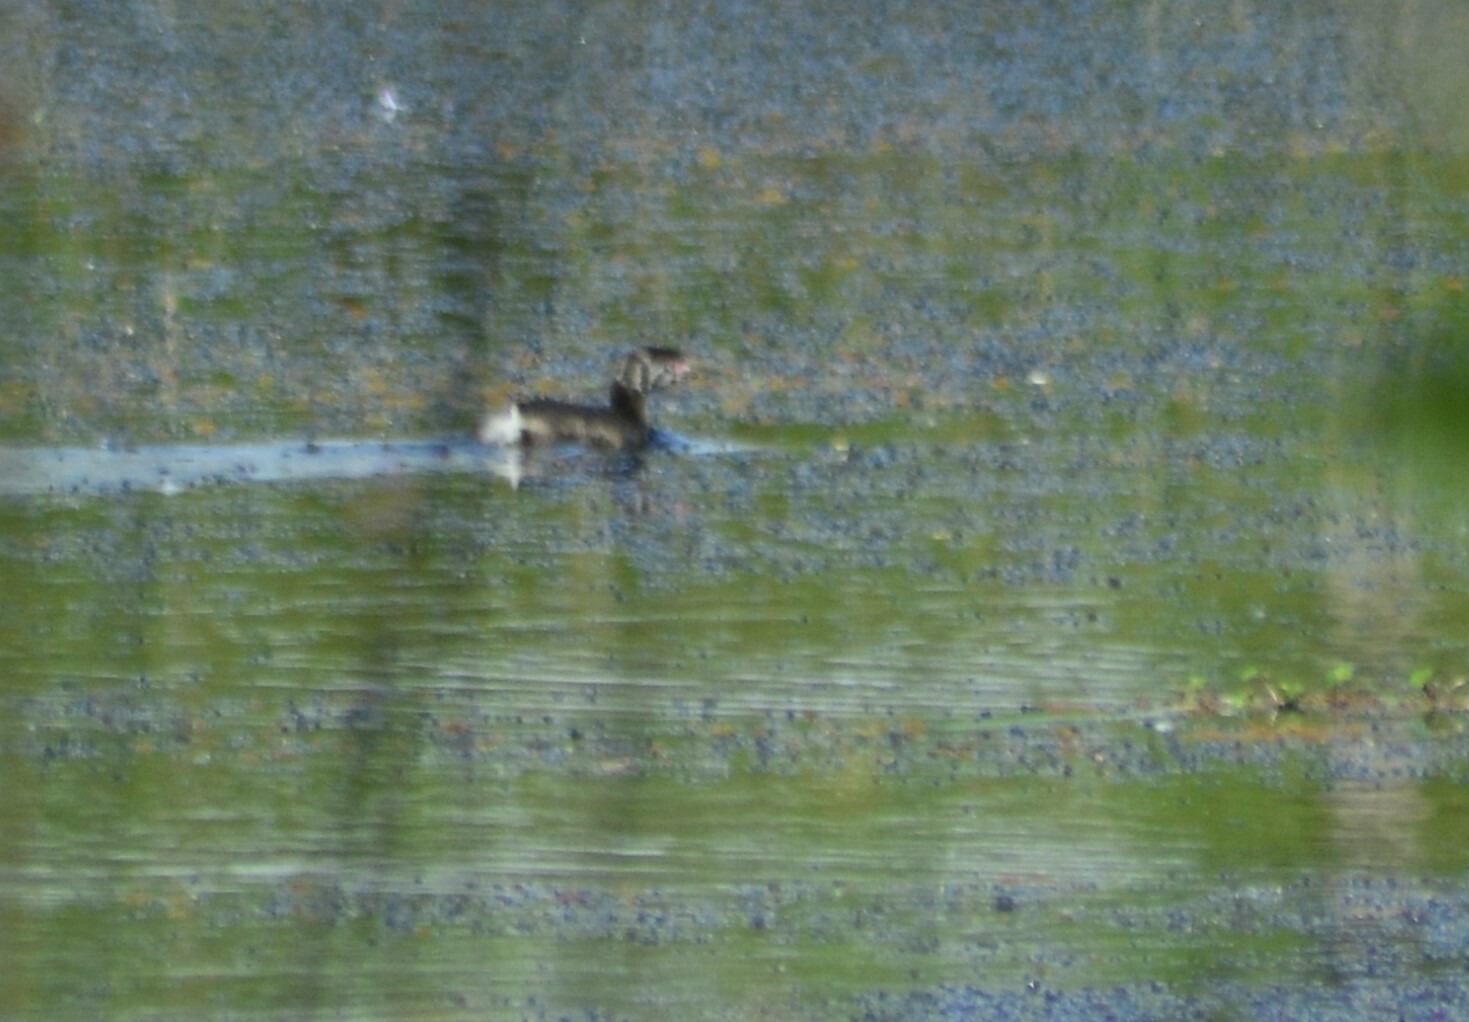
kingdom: Animalia
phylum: Chordata
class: Aves
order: Podicipediformes
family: Podicipedidae
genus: Podilymbus
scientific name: Podilymbus podiceps
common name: Pied-billed grebe
